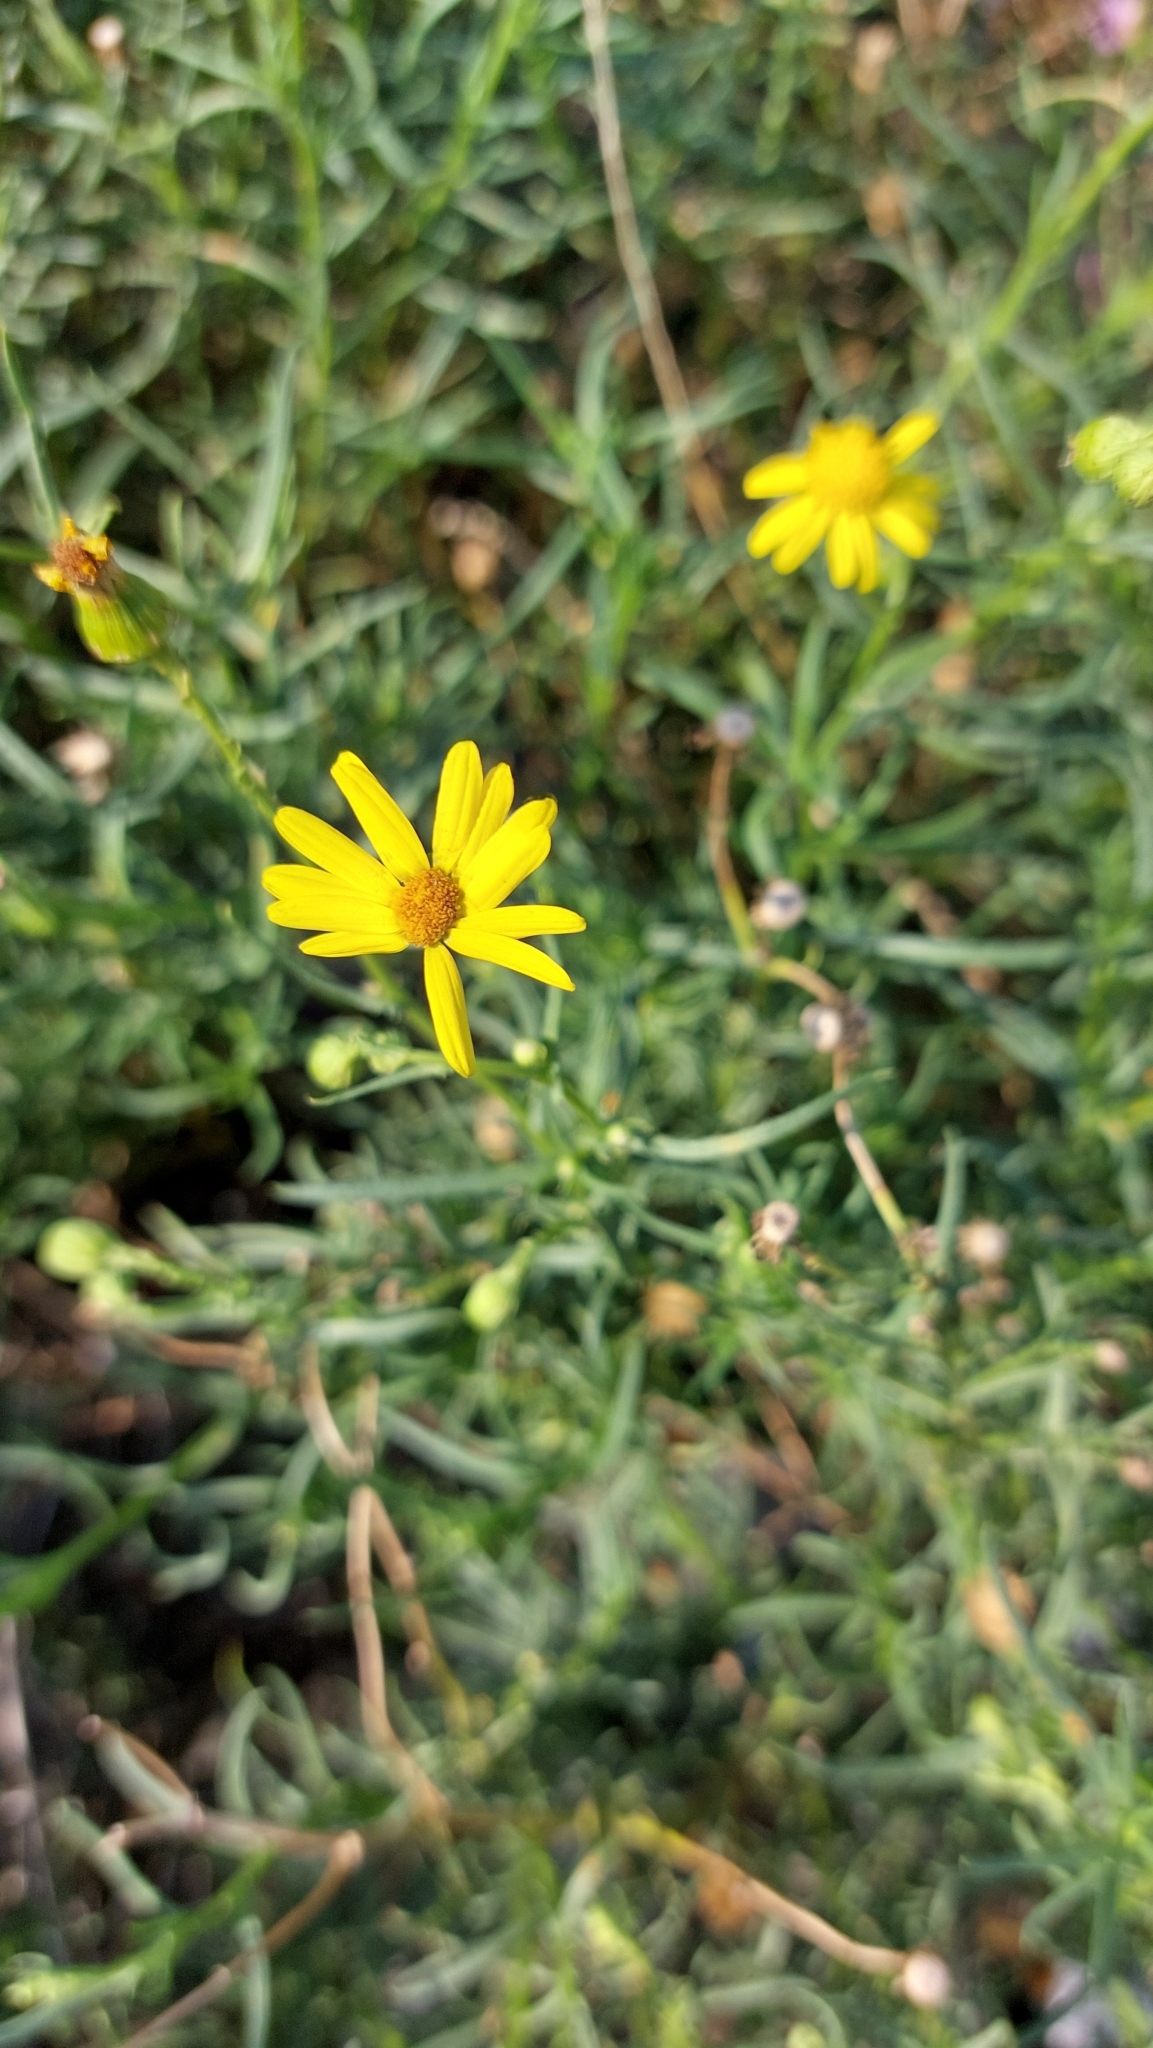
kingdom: Plantae
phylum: Tracheophyta
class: Magnoliopsida
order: Asterales
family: Asteraceae
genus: Senecio
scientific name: Senecio inaequidens
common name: Narrow-leaved ragwort
